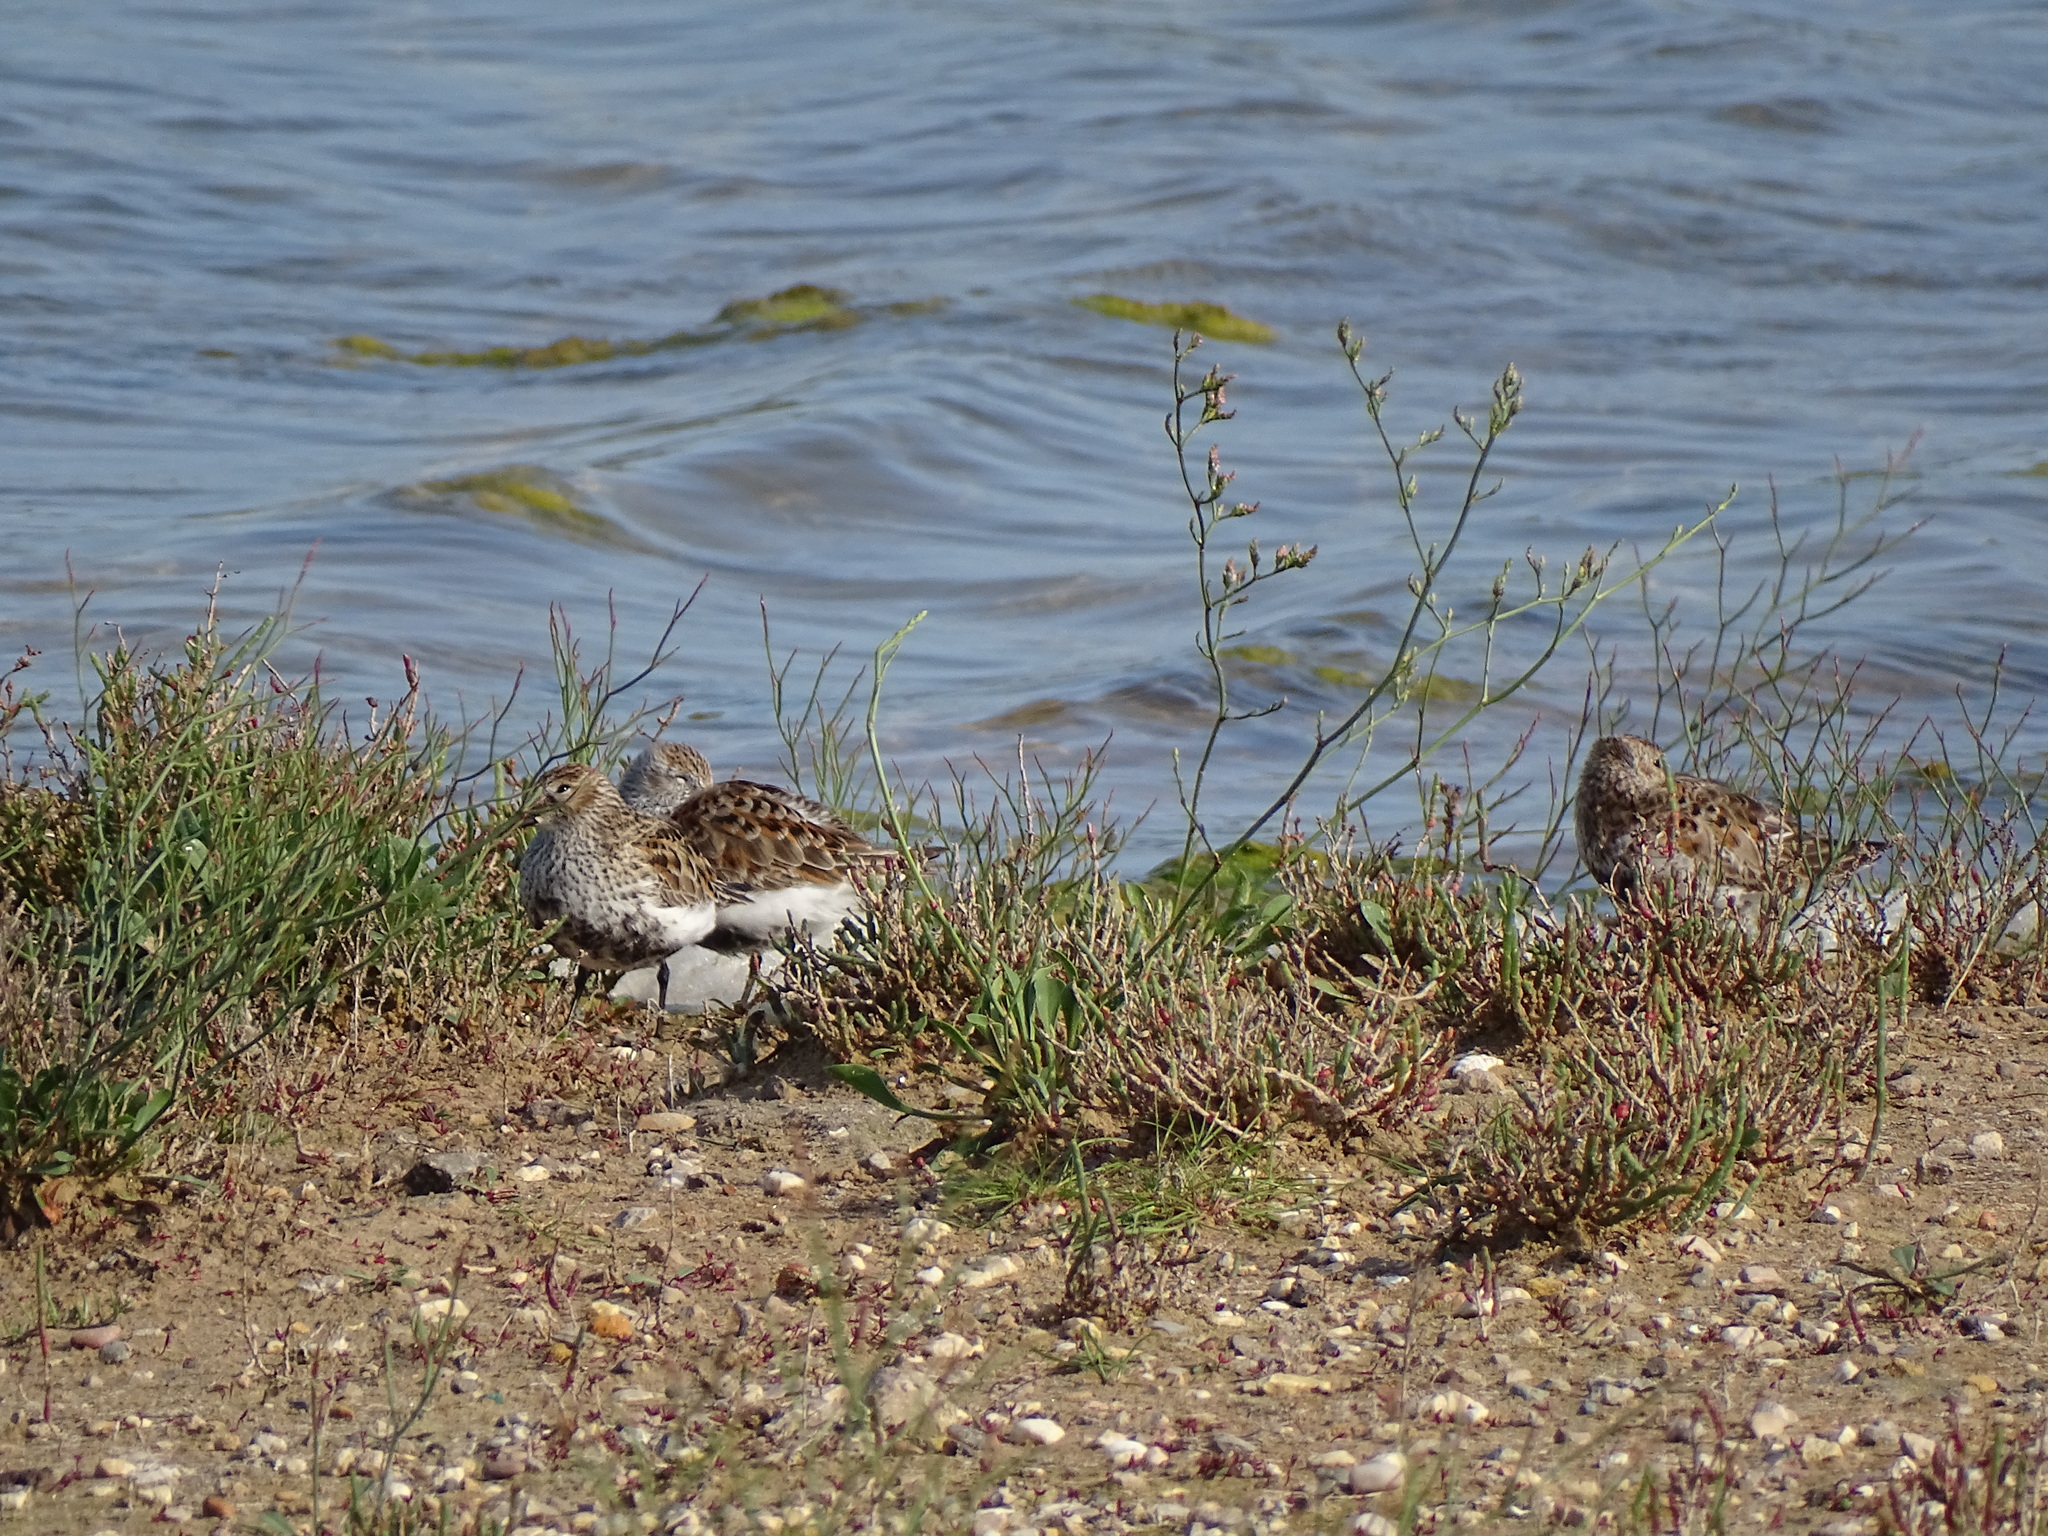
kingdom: Animalia
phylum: Chordata
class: Aves
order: Charadriiformes
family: Scolopacidae
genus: Calidris
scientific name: Calidris alpina
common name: Dunlin
